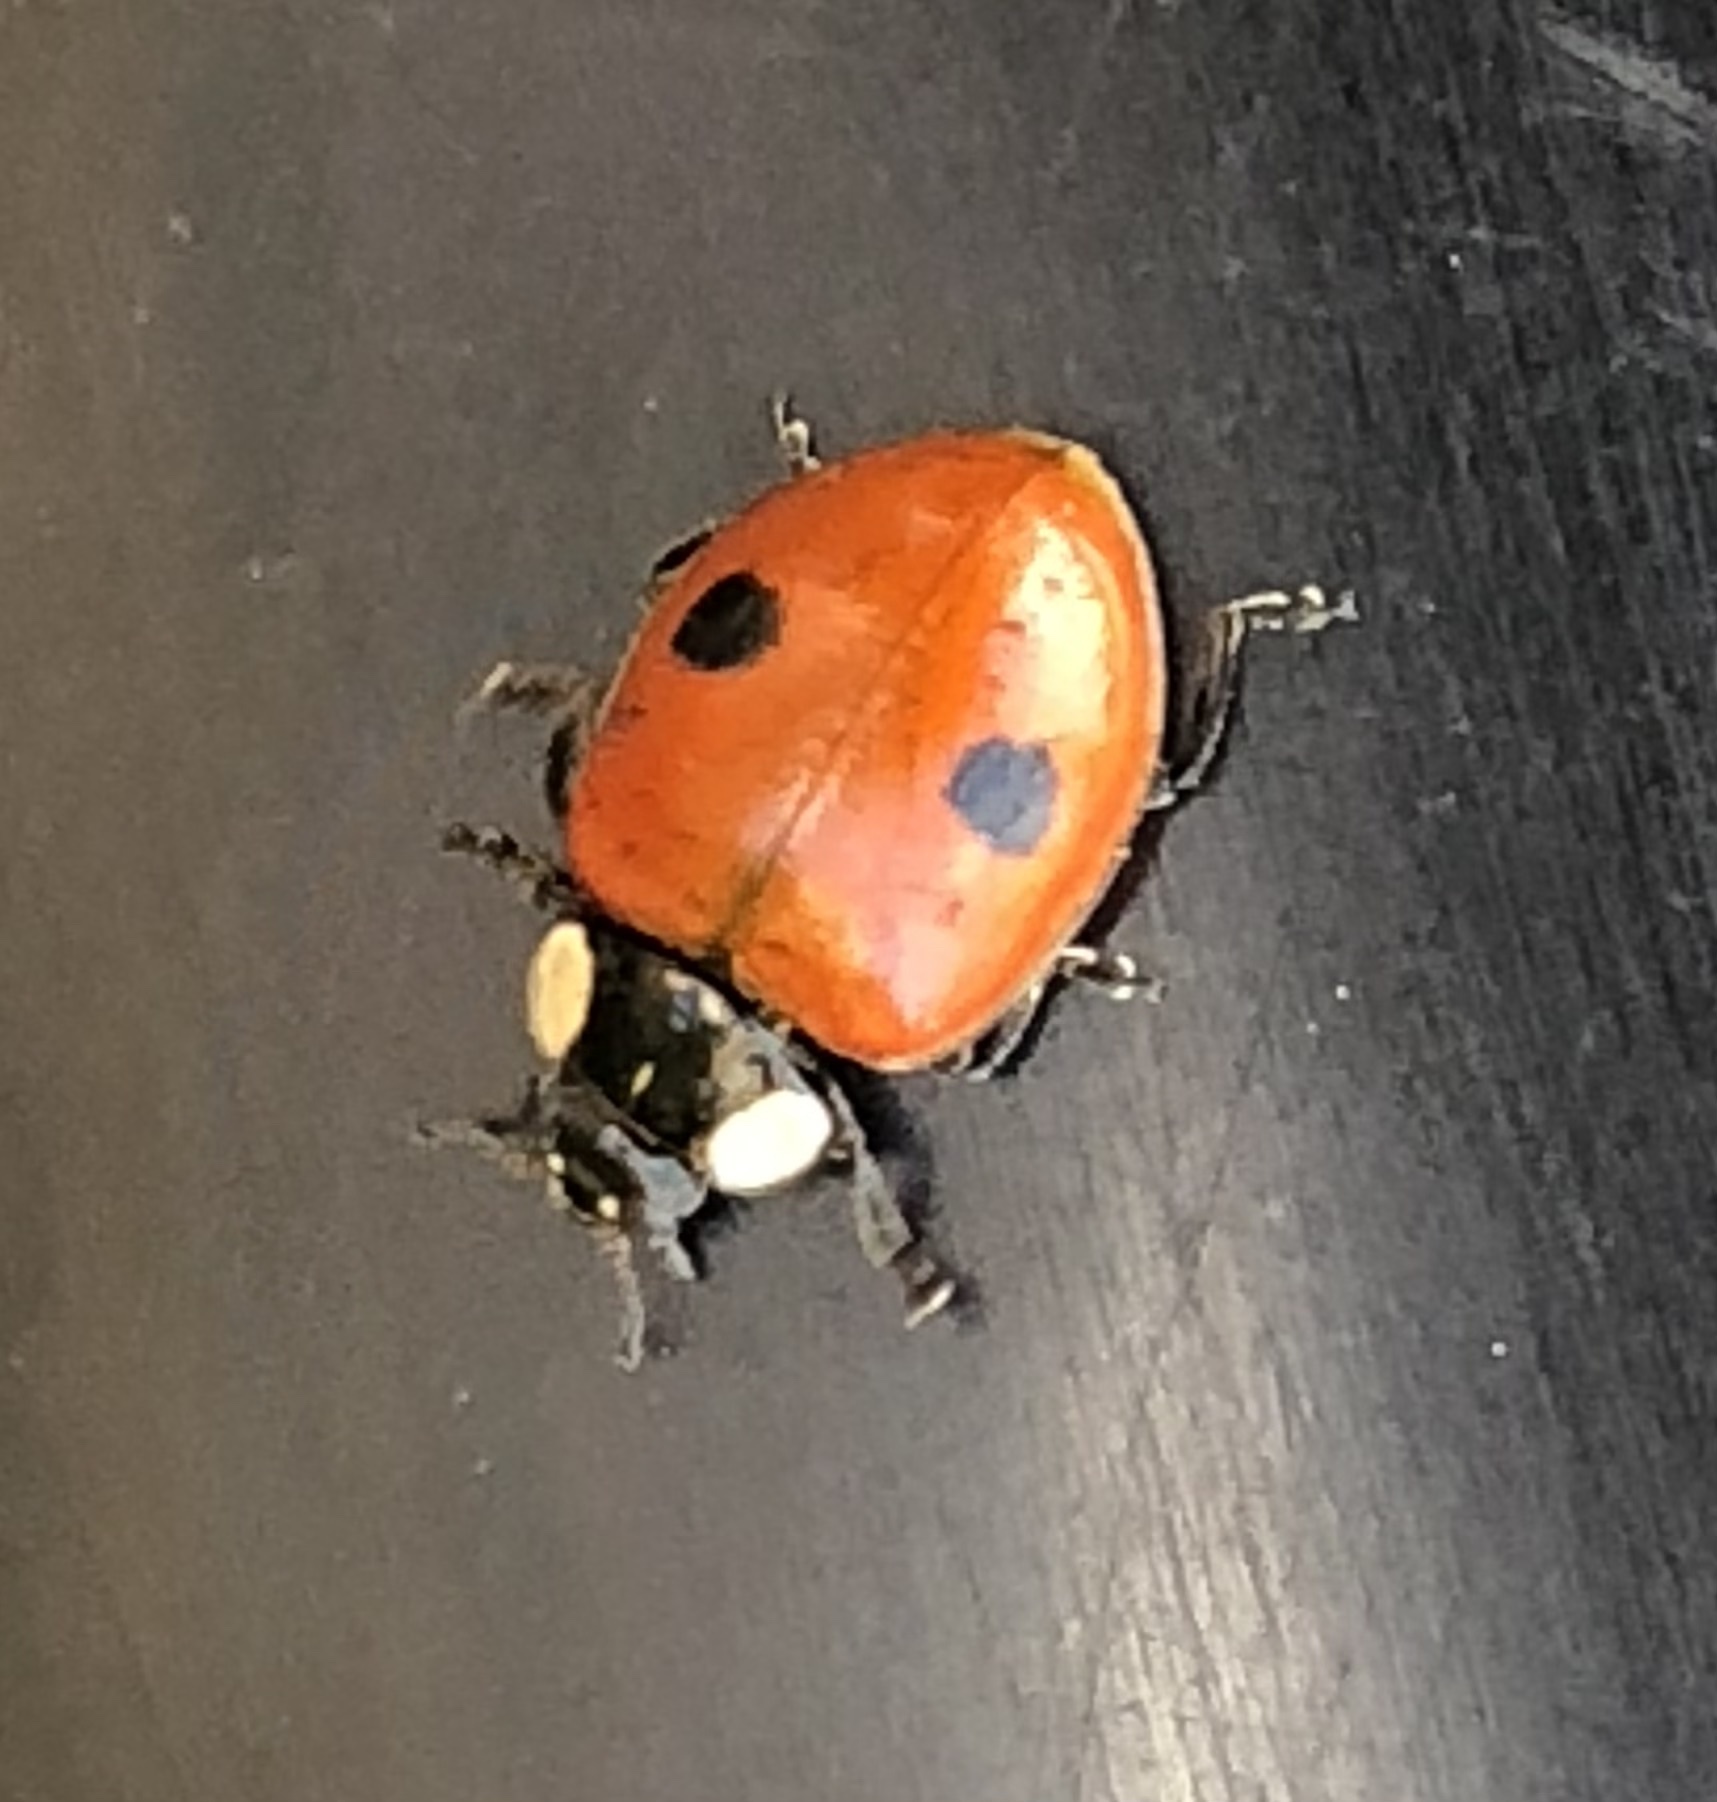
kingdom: Animalia
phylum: Arthropoda
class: Insecta
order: Coleoptera
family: Coccinellidae
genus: Adalia
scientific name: Adalia bipunctata
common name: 2-spot ladybird
